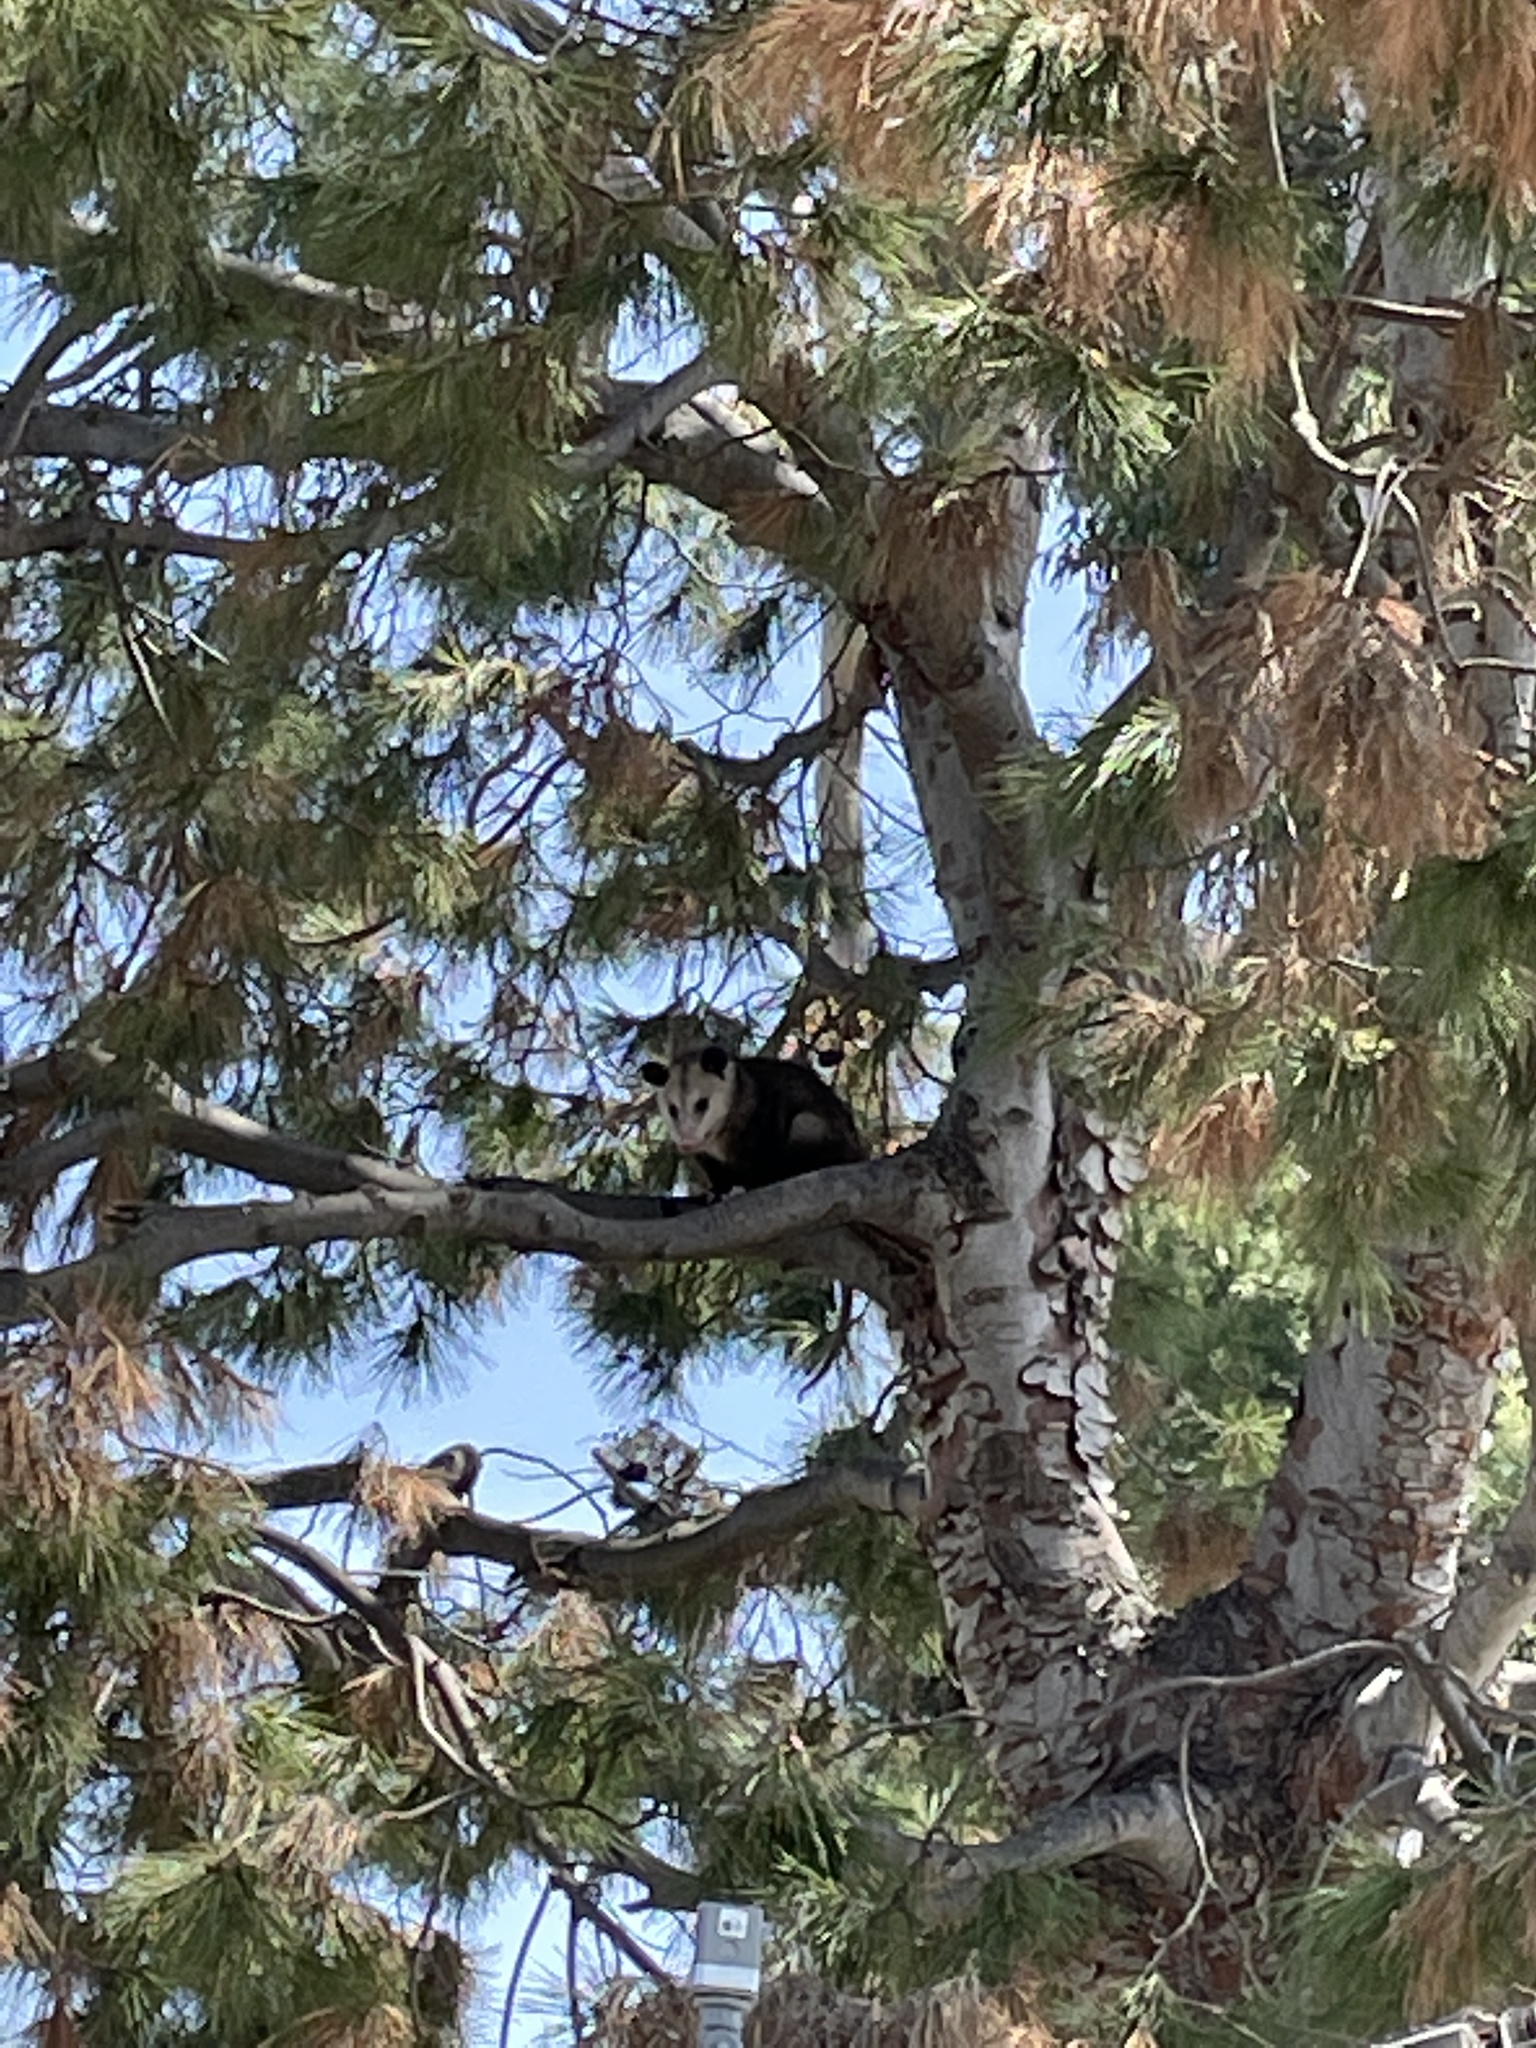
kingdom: Animalia
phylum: Chordata
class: Mammalia
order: Didelphimorphia
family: Didelphidae
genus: Didelphis
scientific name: Didelphis virginiana
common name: Virginia opossum
